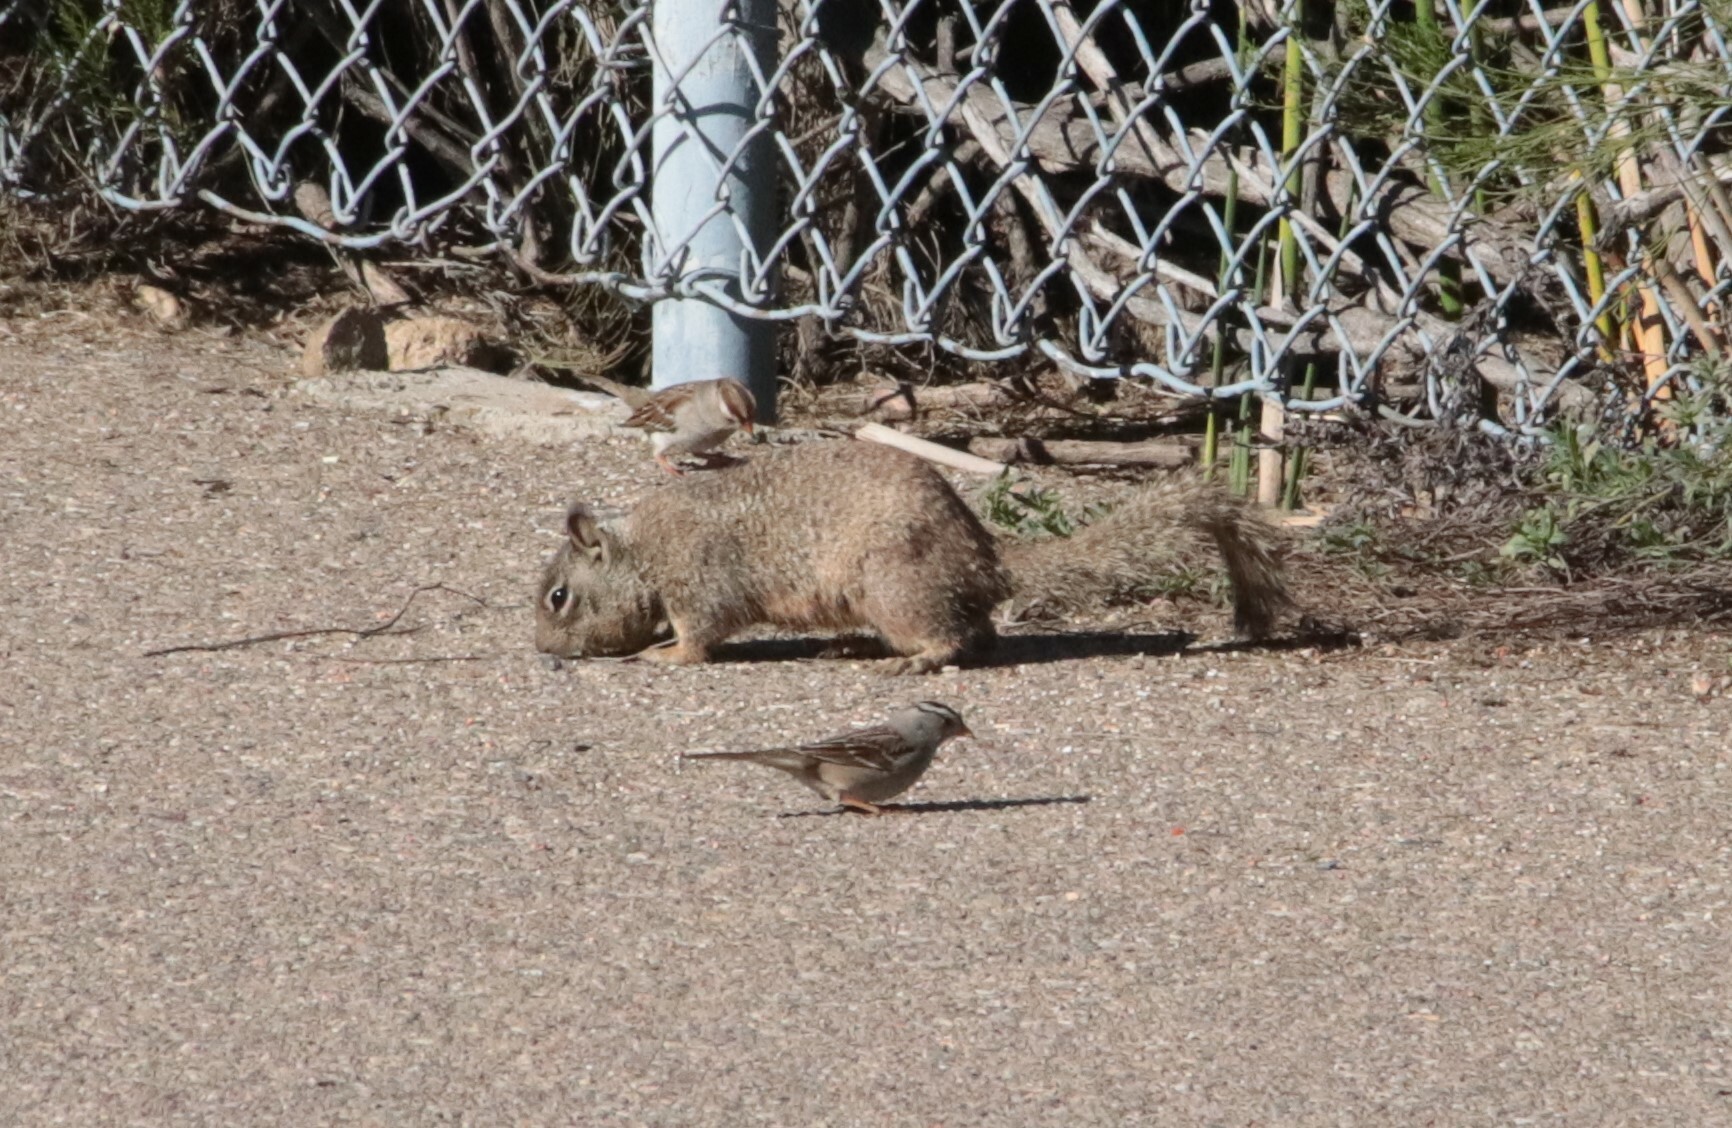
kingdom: Animalia
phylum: Chordata
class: Mammalia
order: Rodentia
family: Sciuridae
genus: Otospermophilus
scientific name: Otospermophilus beecheyi
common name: California ground squirrel
